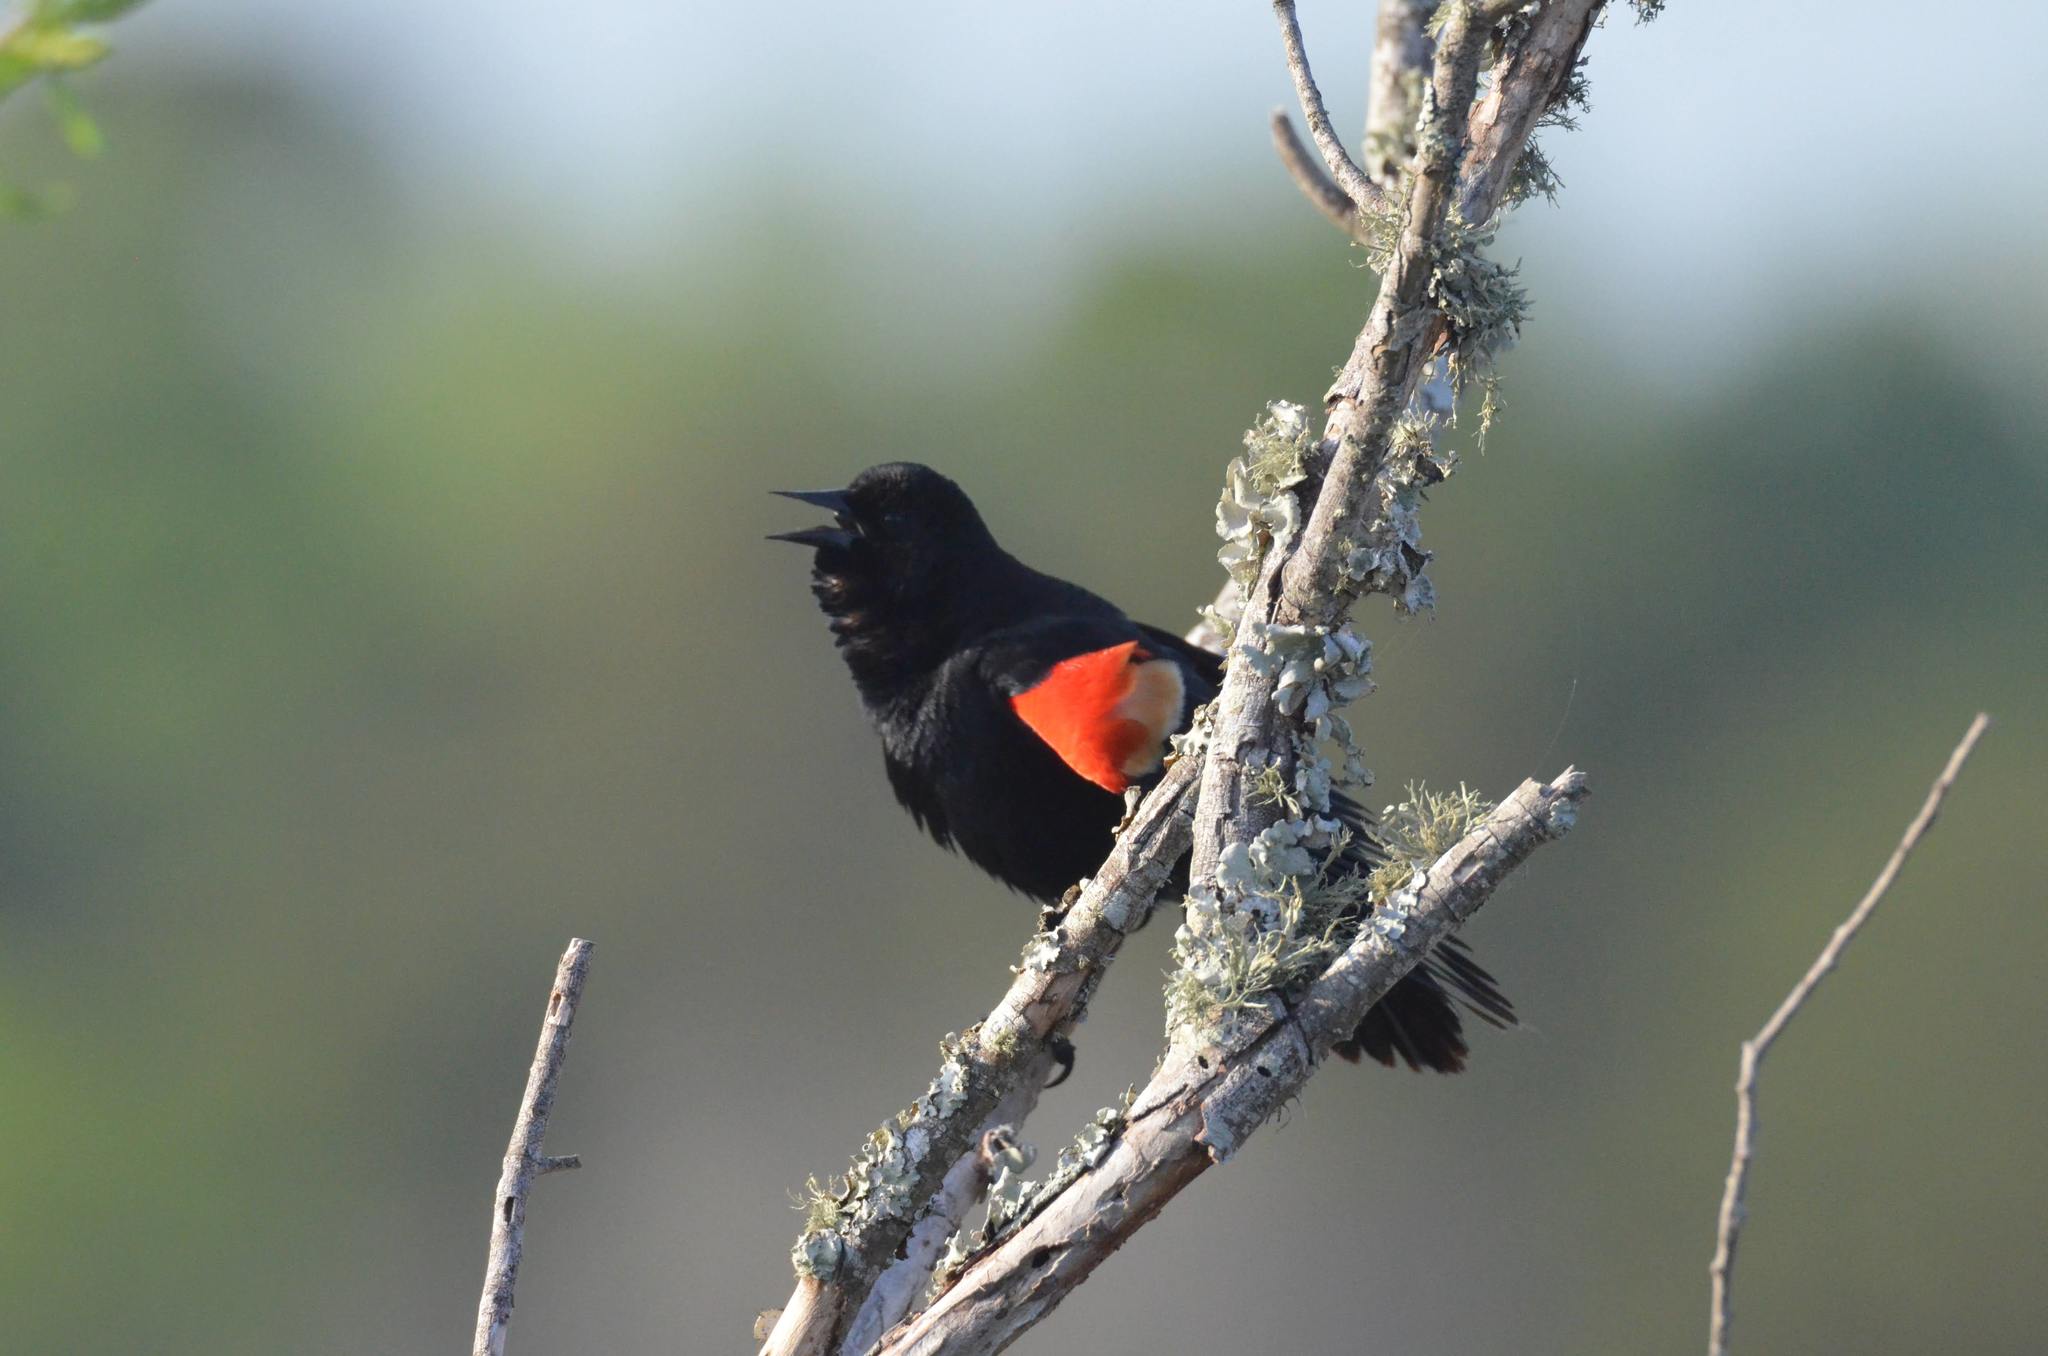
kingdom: Animalia
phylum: Chordata
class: Aves
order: Passeriformes
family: Icteridae
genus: Agelaius
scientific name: Agelaius phoeniceus
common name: Red-winged blackbird
